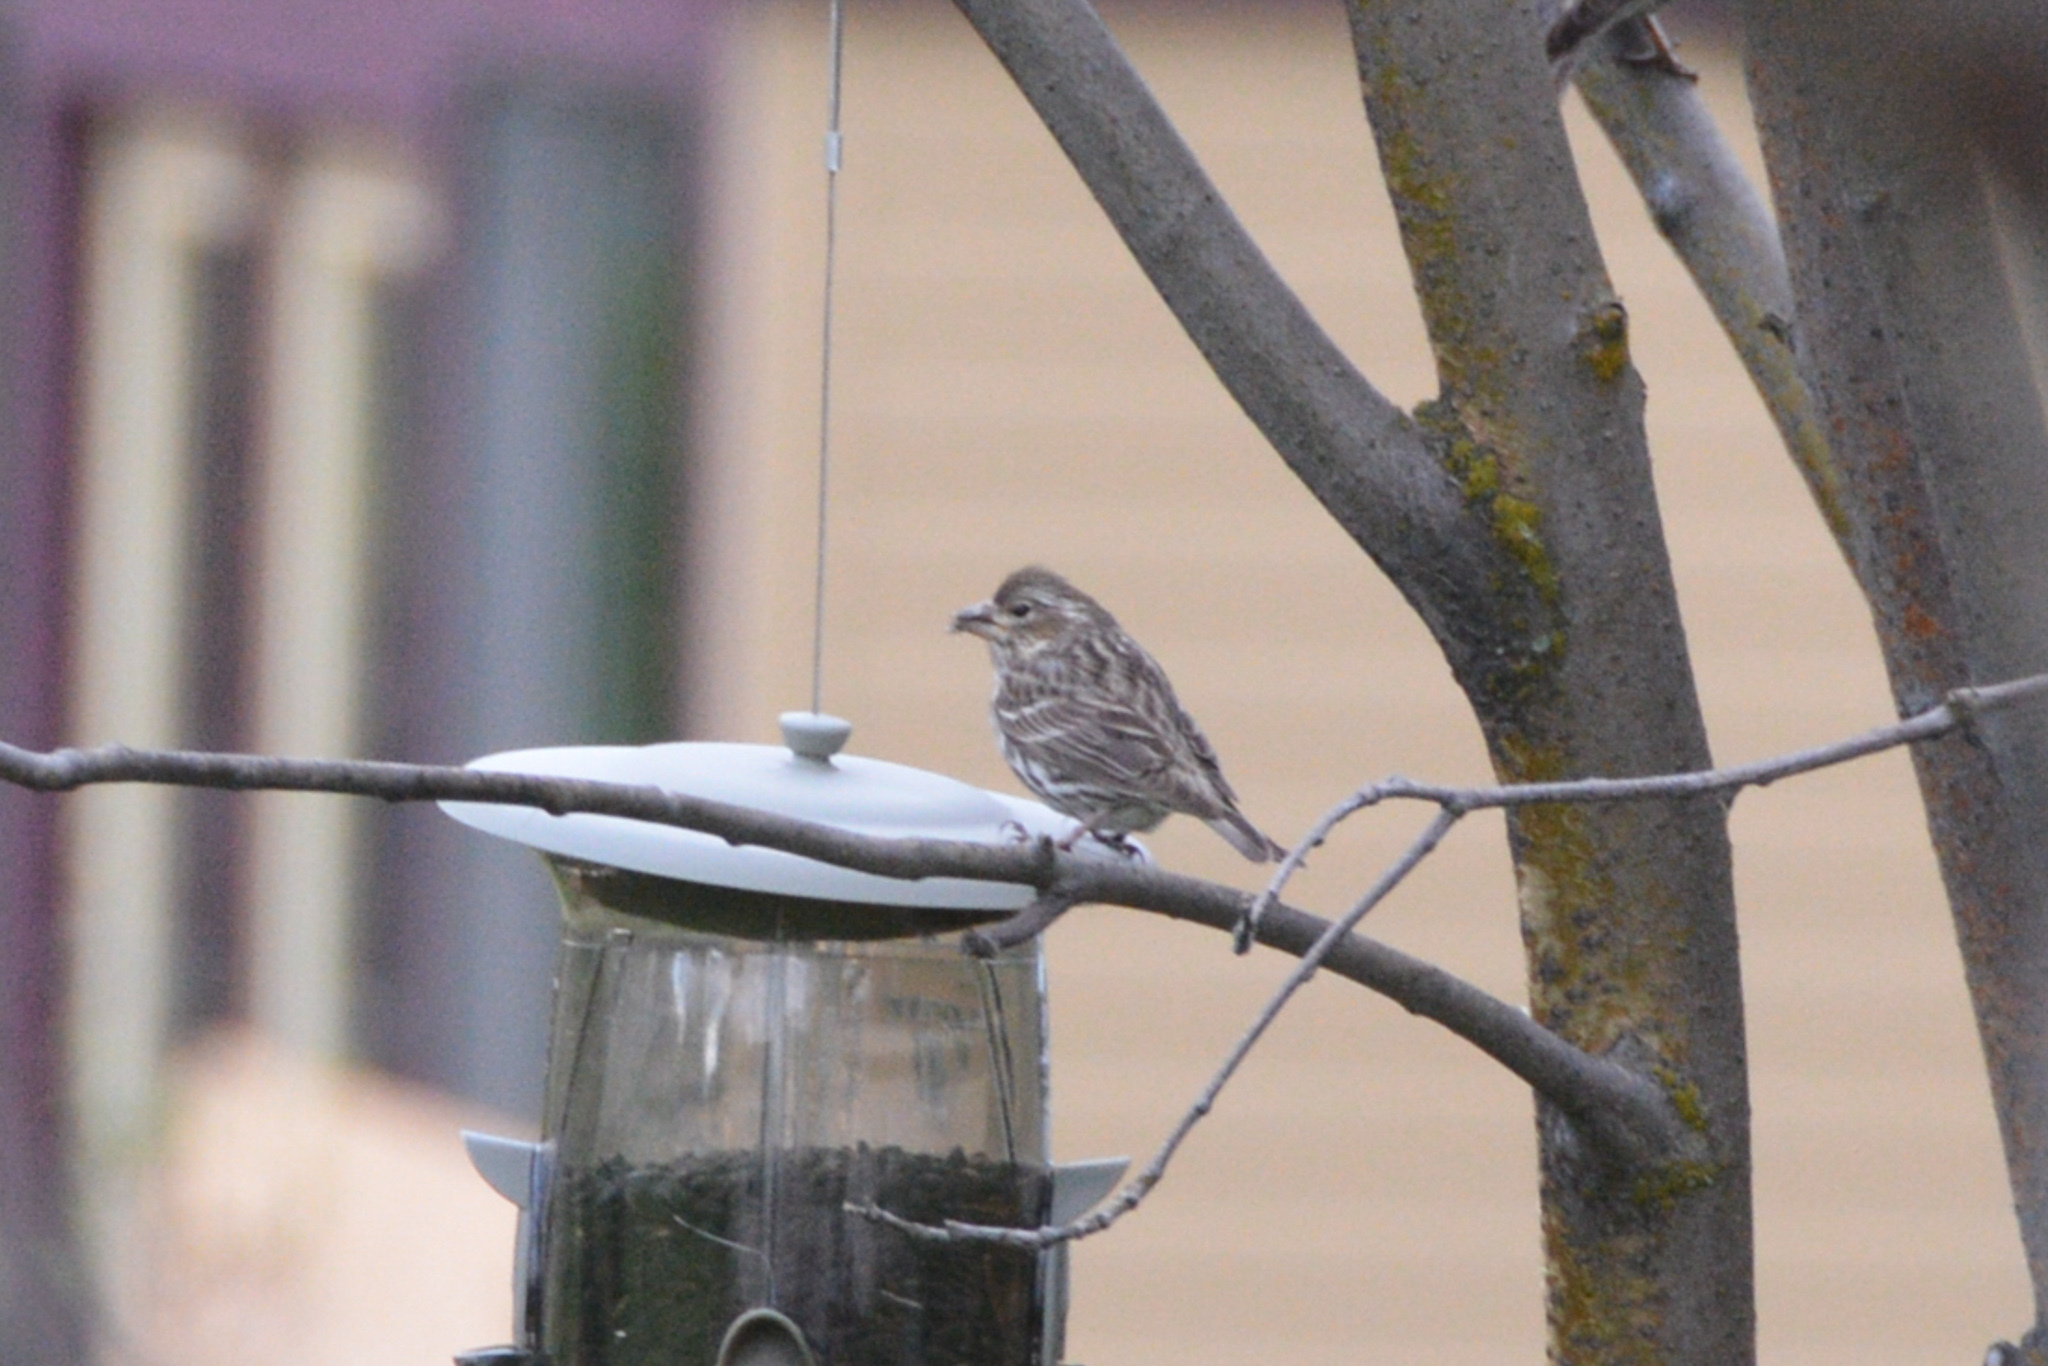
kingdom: Animalia
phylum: Chordata
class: Aves
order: Passeriformes
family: Fringillidae
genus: Haemorhous
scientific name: Haemorhous cassinii
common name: Cassin's finch
